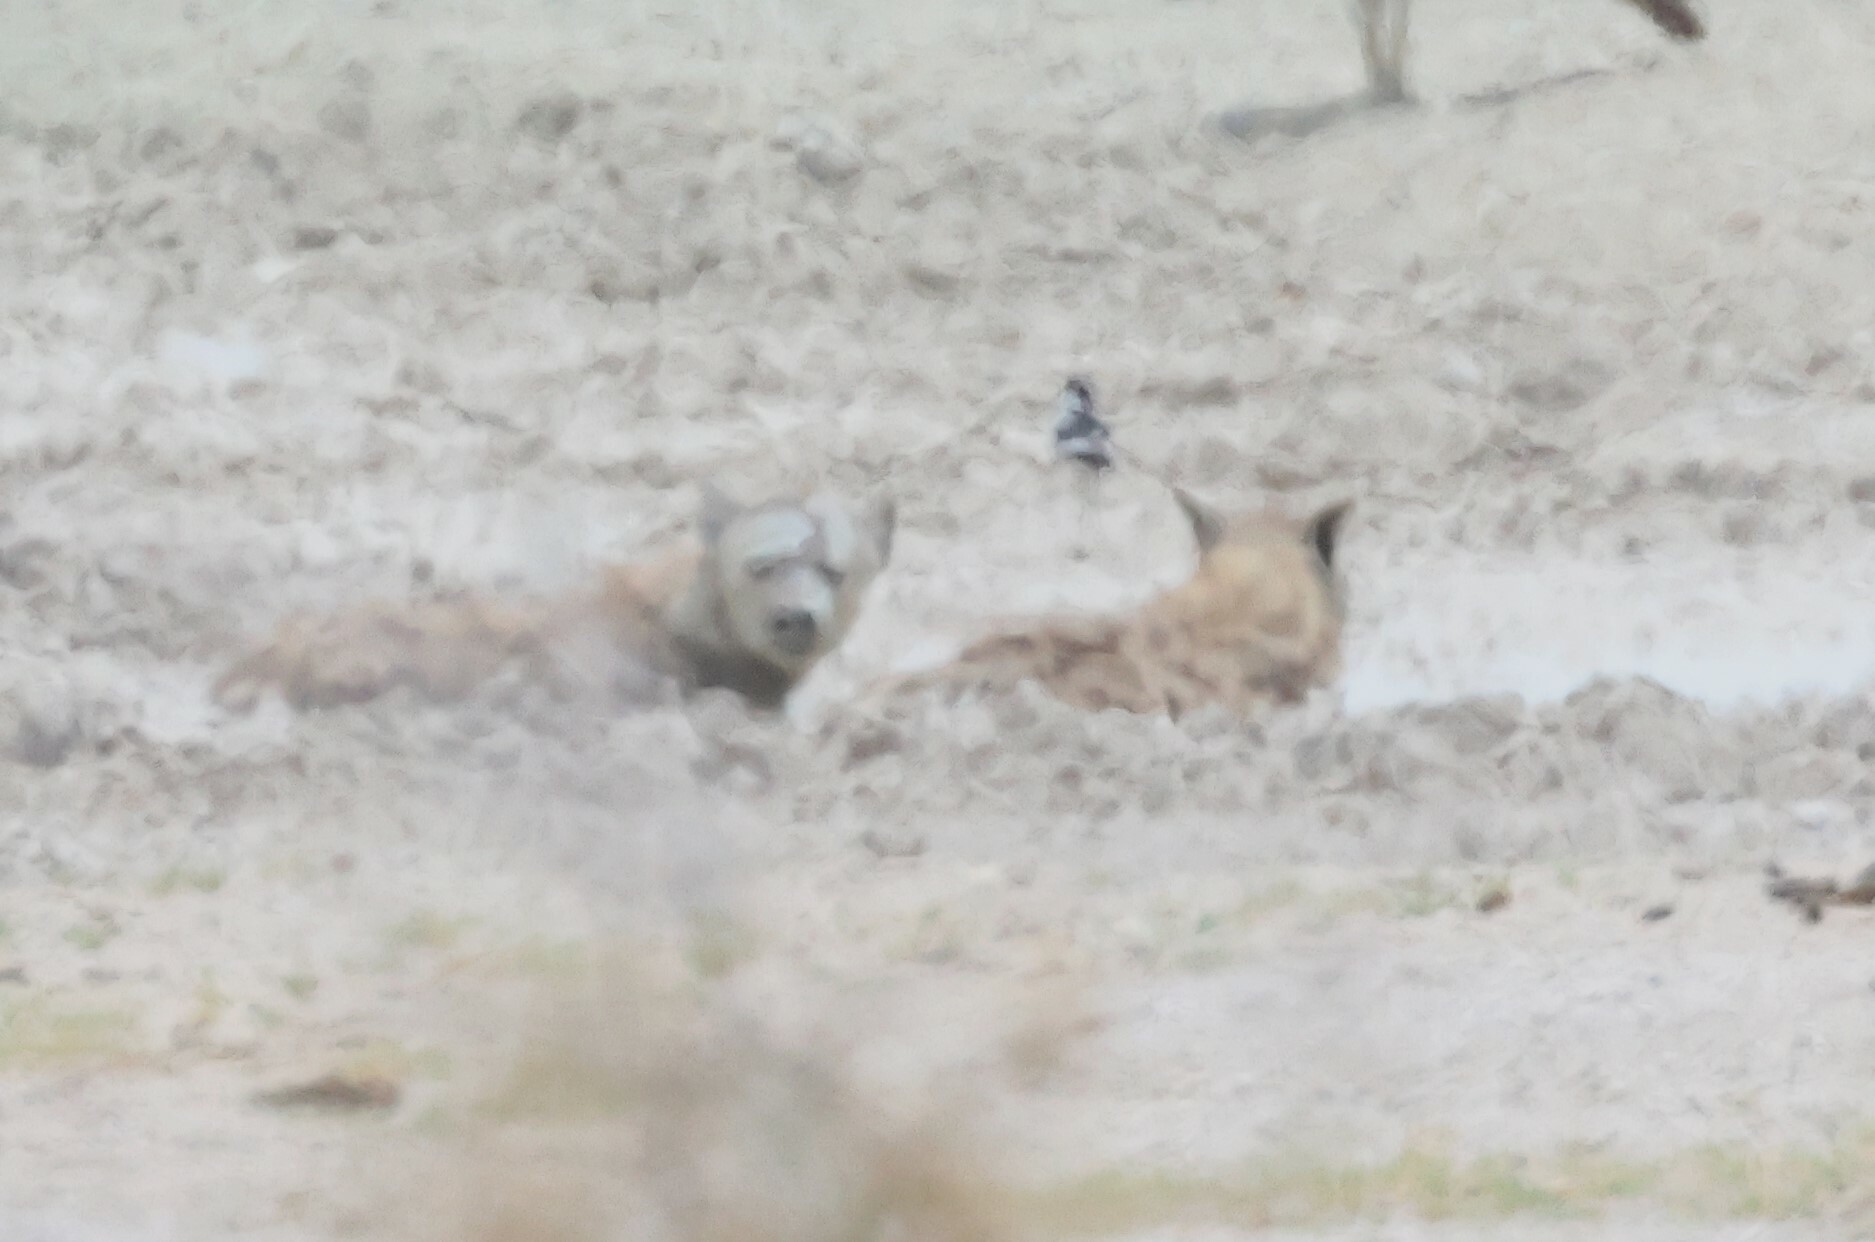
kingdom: Animalia
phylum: Chordata
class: Mammalia
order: Carnivora
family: Hyaenidae
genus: Crocuta
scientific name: Crocuta crocuta
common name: Spotted hyaena
